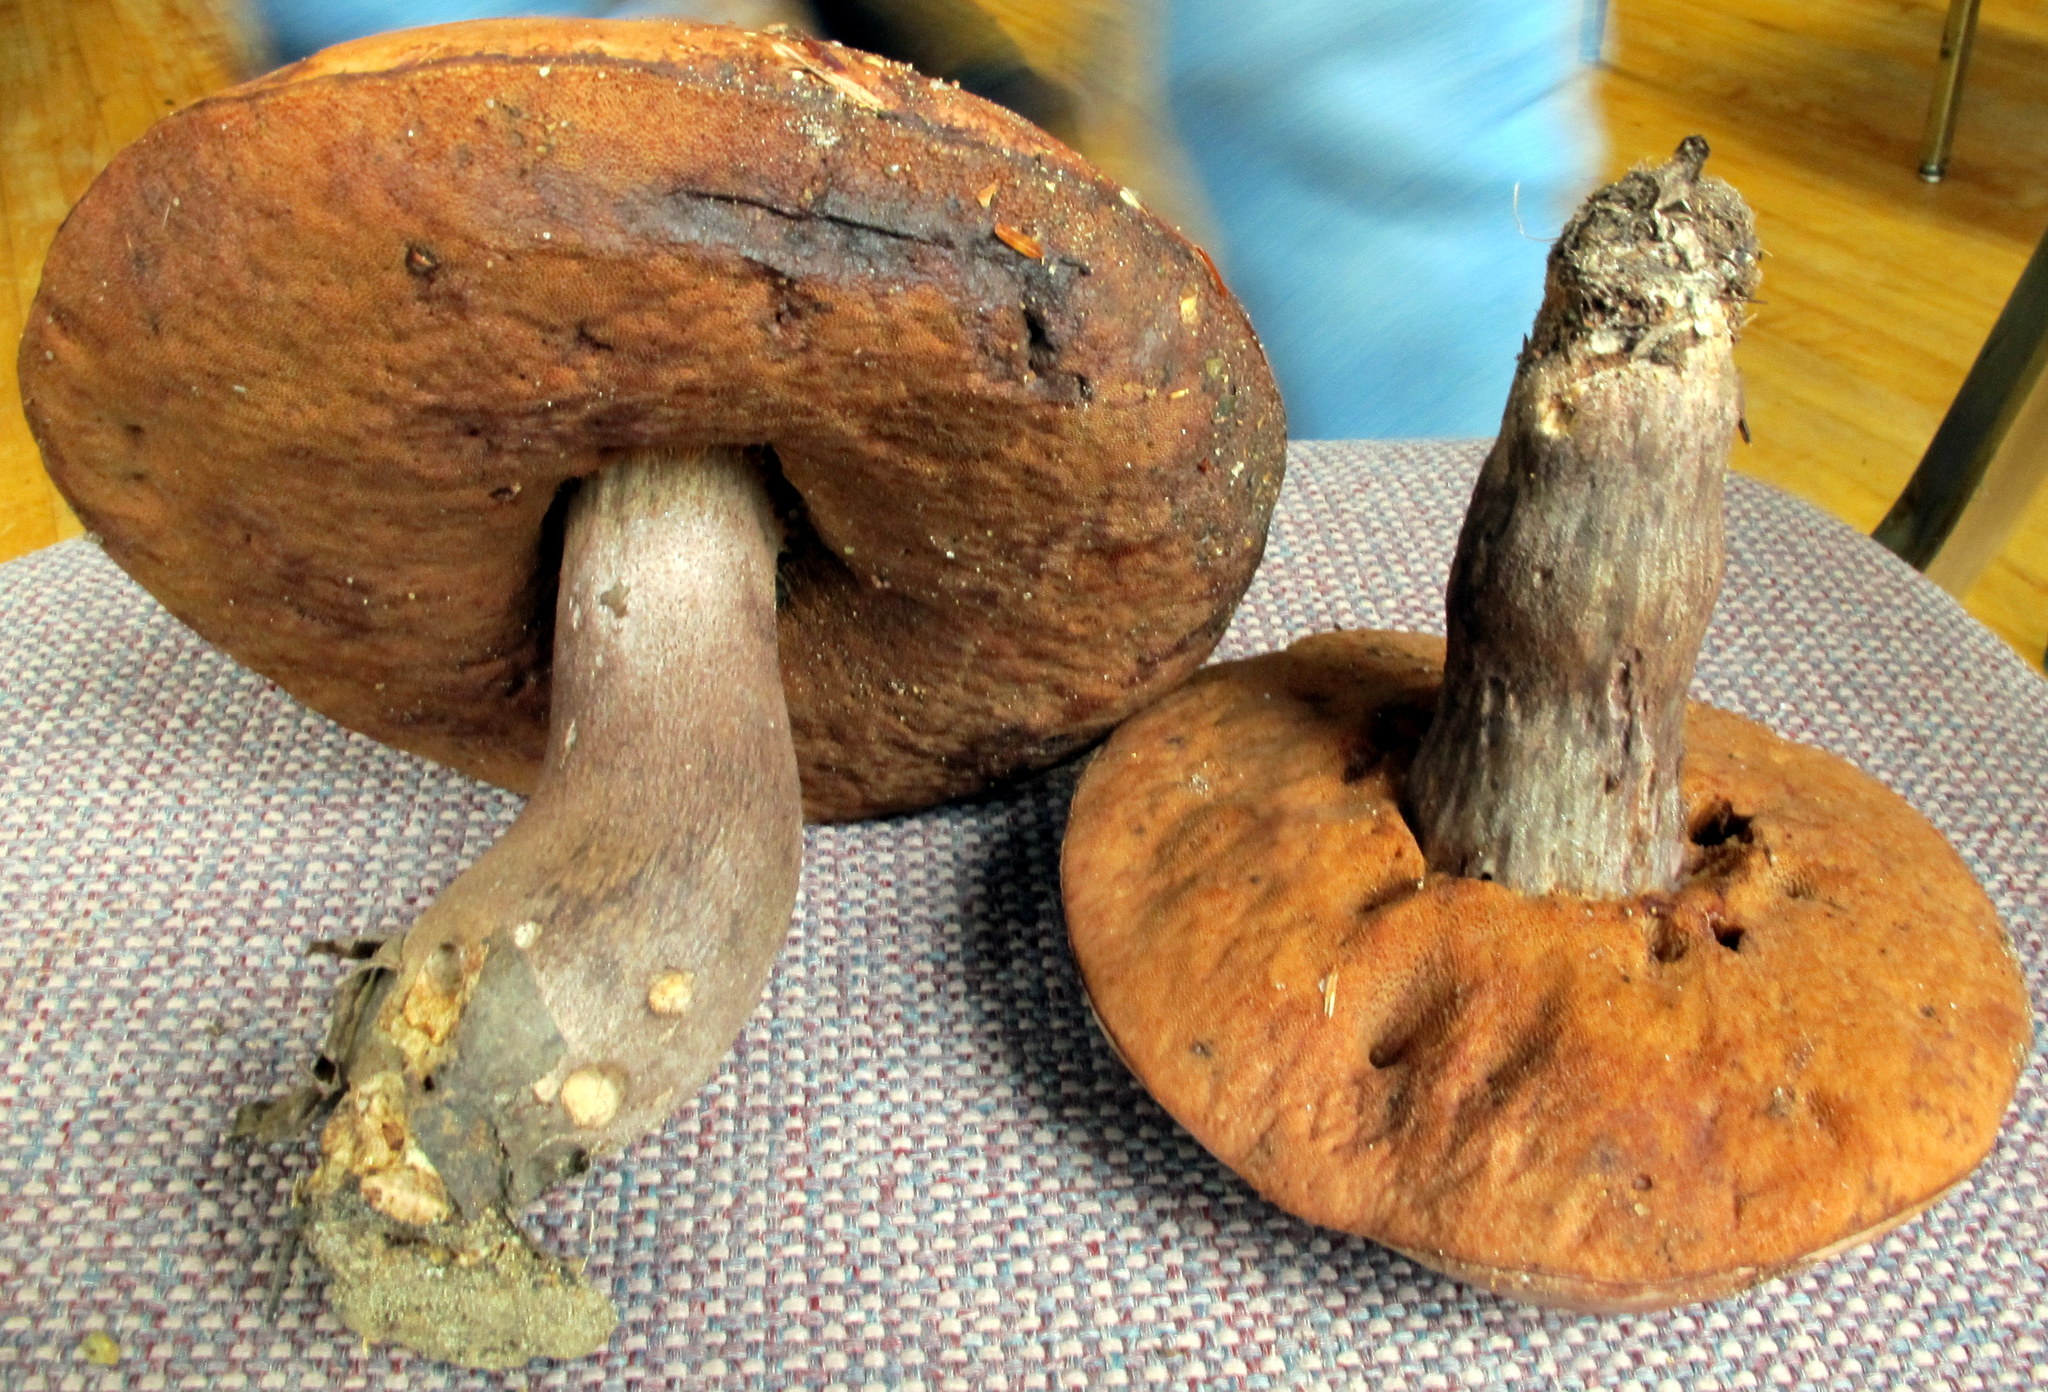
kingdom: Fungi
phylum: Basidiomycota
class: Agaricomycetes
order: Boletales
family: Boletaceae
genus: Sutorius
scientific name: Sutorius eximius
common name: Lilac-brown bolete
